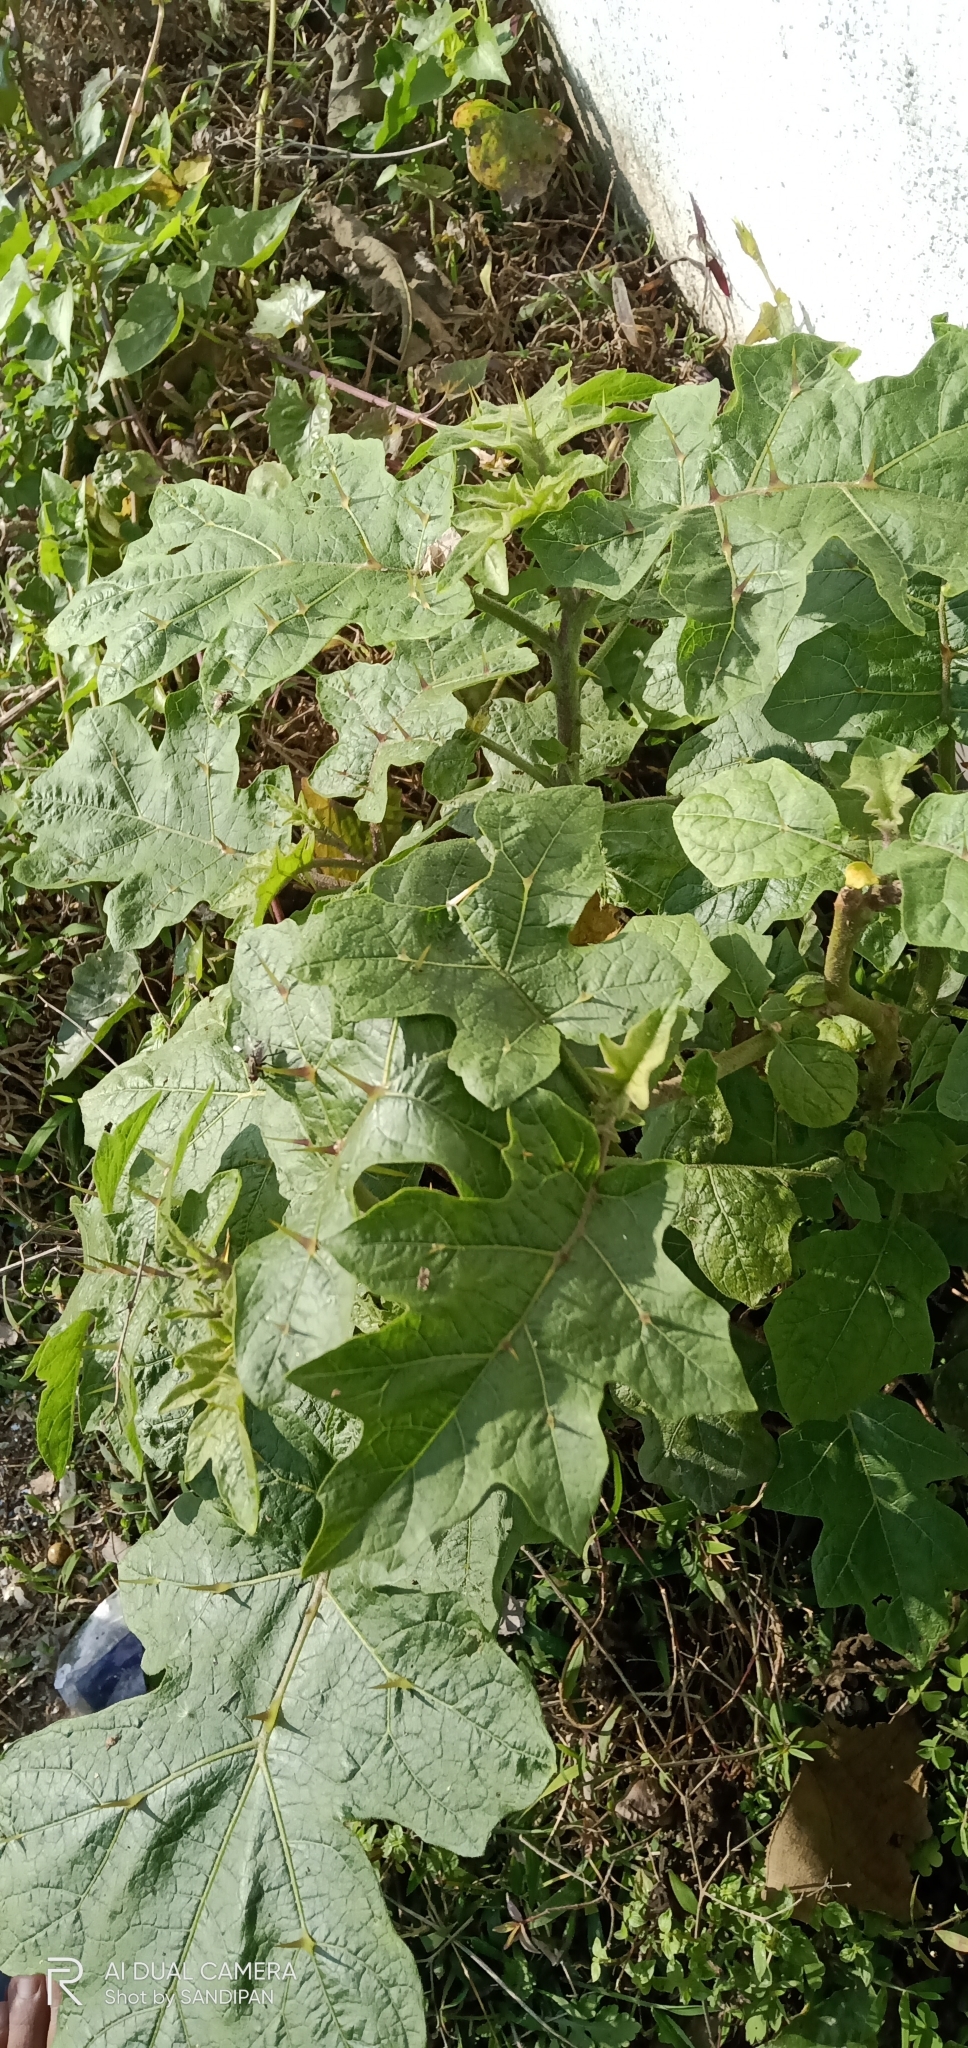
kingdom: Plantae
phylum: Tracheophyta
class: Magnoliopsida
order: Solanales
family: Solanaceae
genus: Solanum
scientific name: Solanum capsicoides
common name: Cockroach berry
